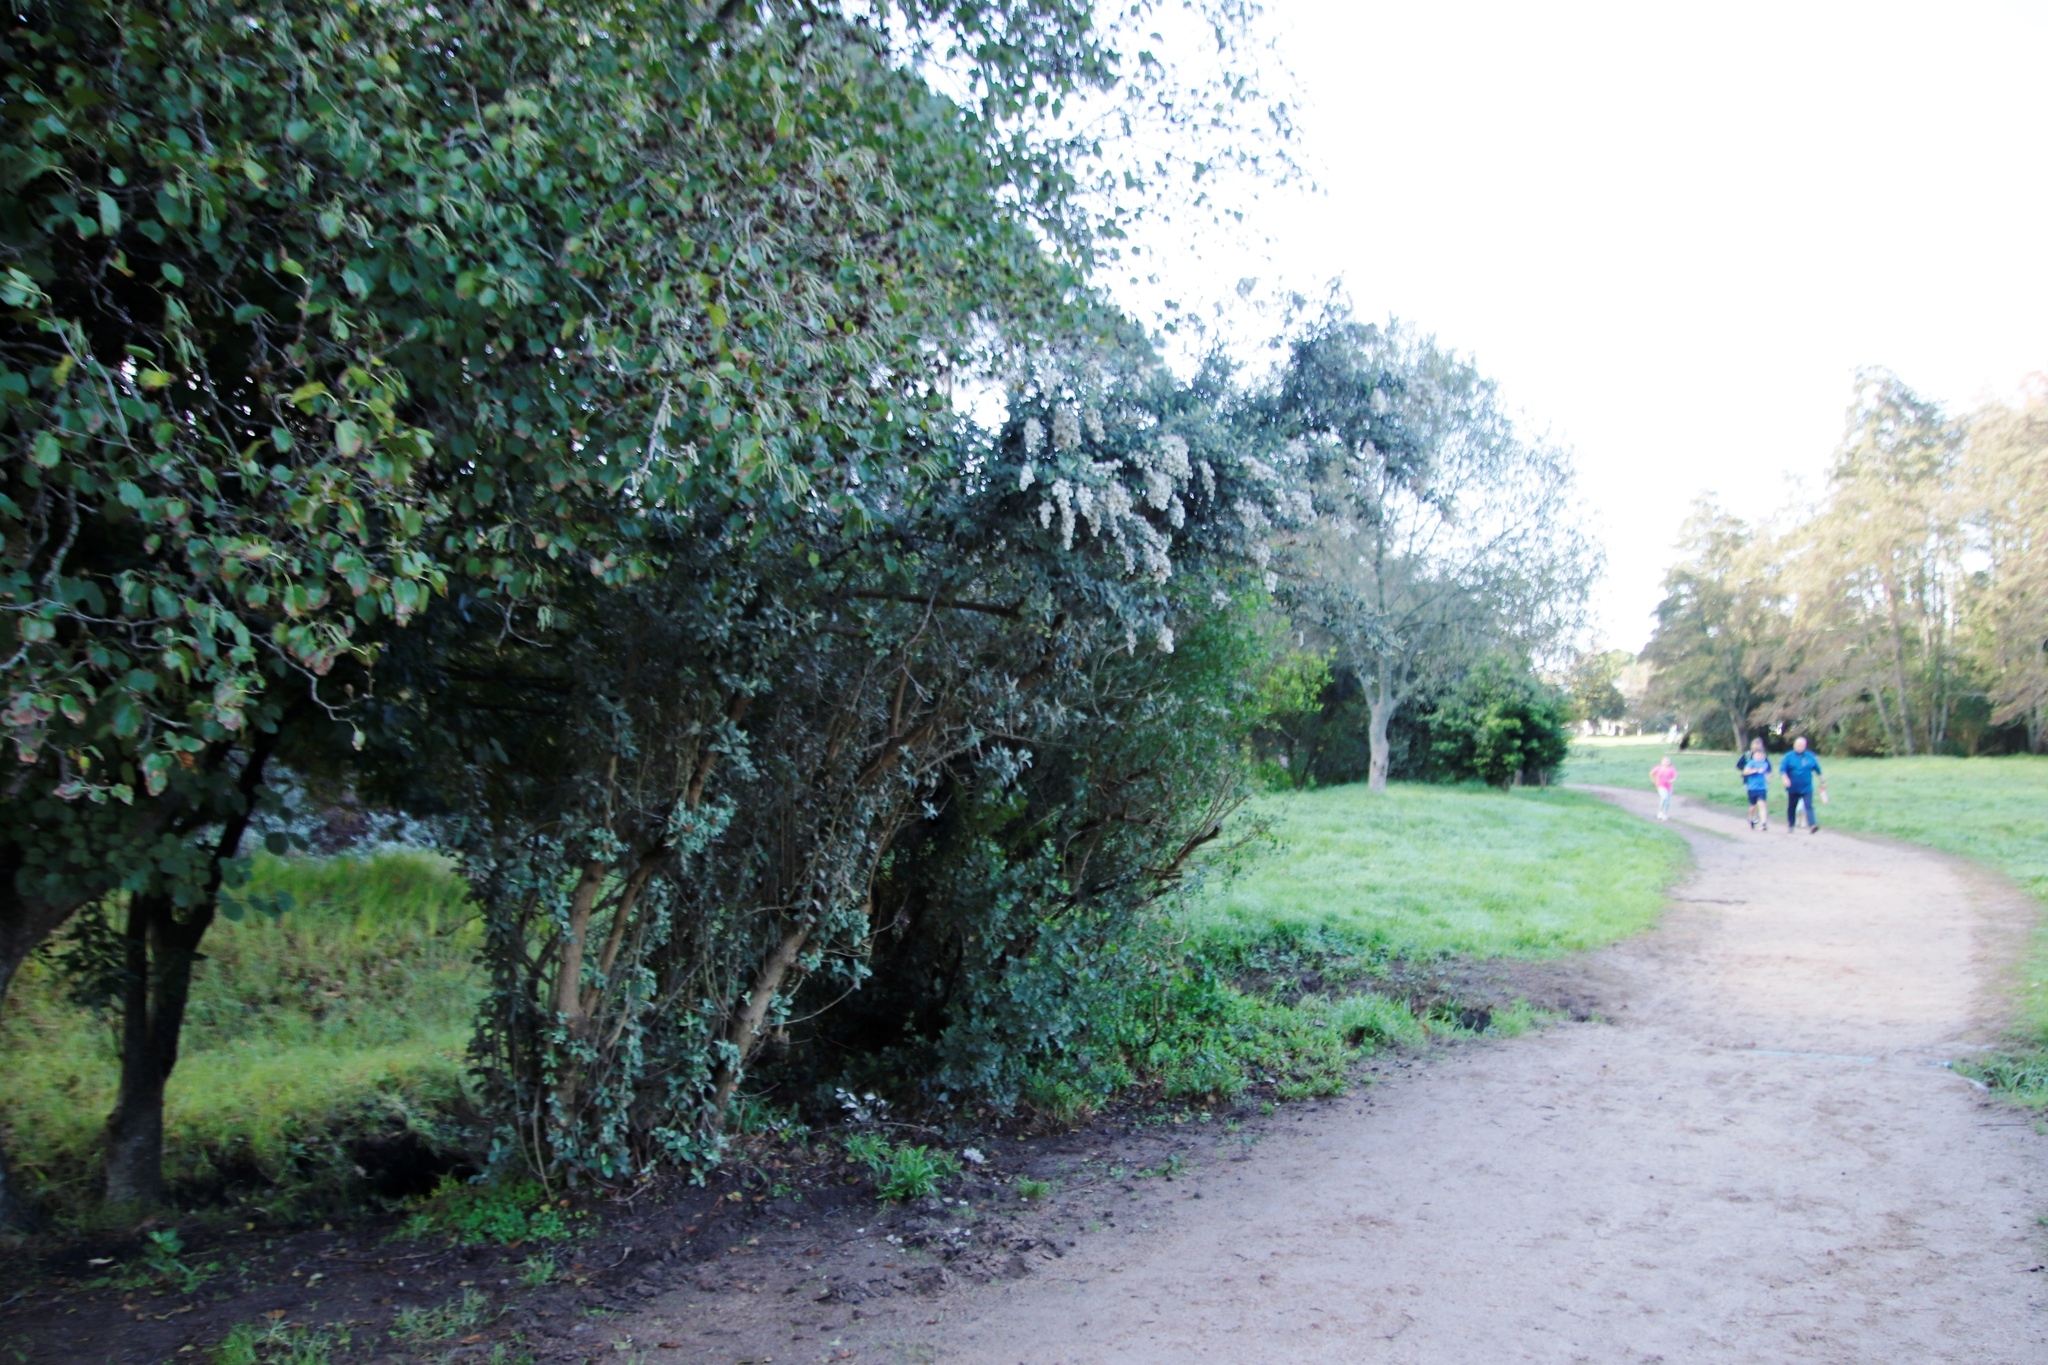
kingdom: Plantae
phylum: Tracheophyta
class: Magnoliopsida
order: Asterales
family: Asteraceae
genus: Tarchonanthus
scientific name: Tarchonanthus littoralis
